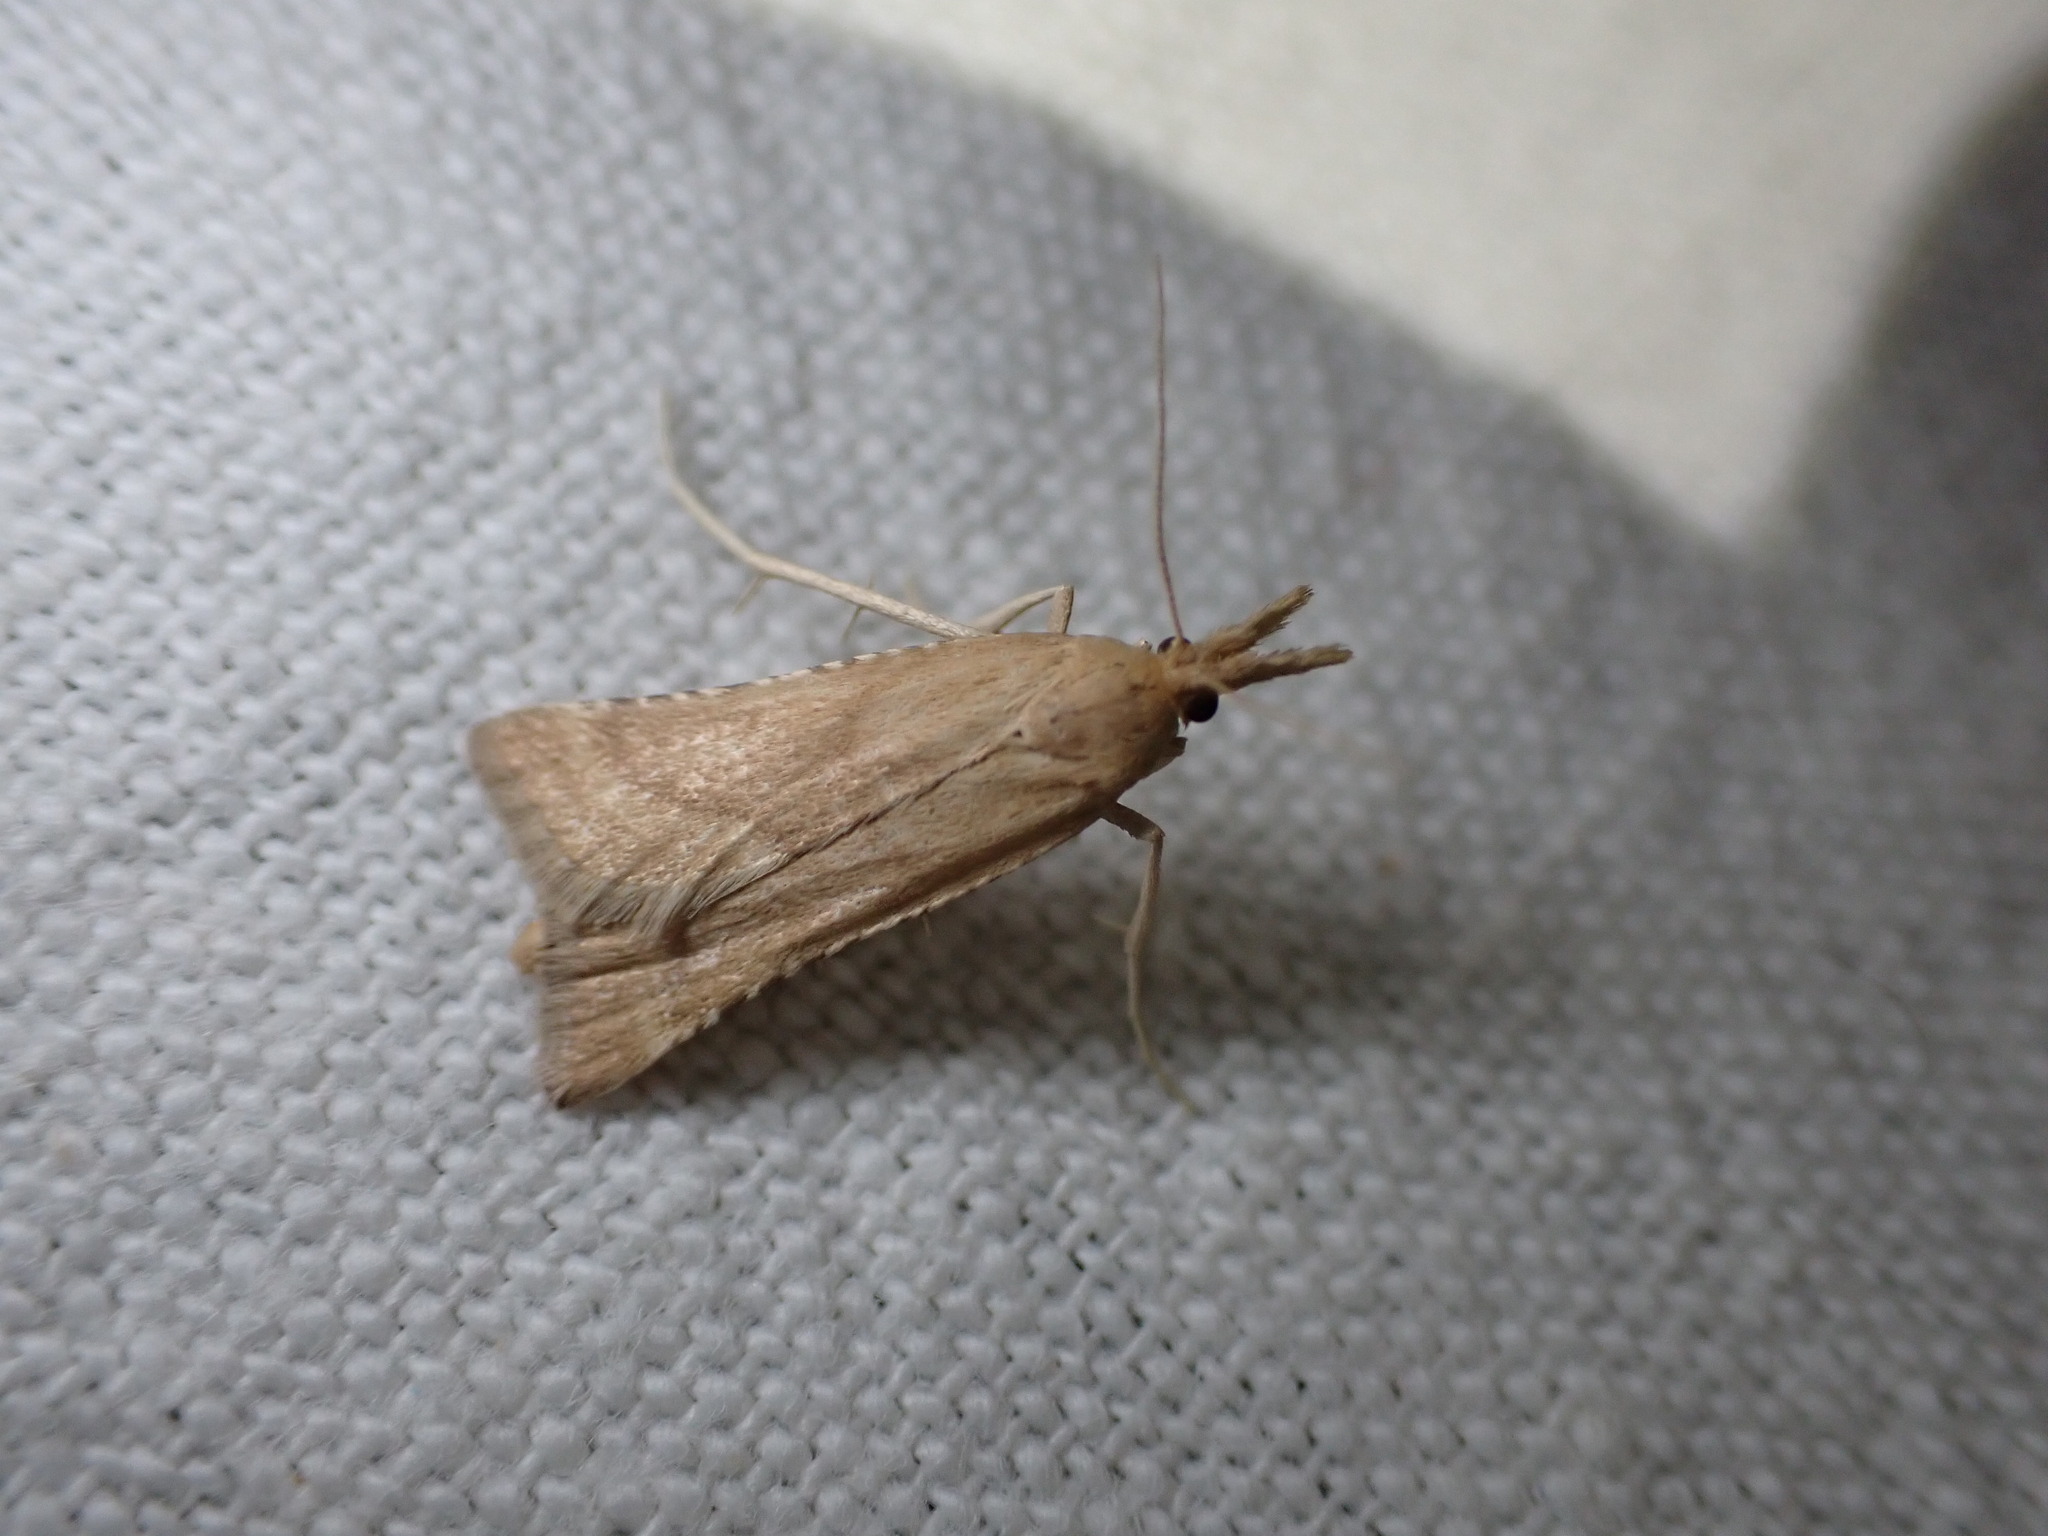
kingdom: Animalia
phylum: Arthropoda
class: Insecta
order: Lepidoptera
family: Pyralidae
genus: Synaphe
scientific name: Synaphe punctalis
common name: Long-legged tabby
